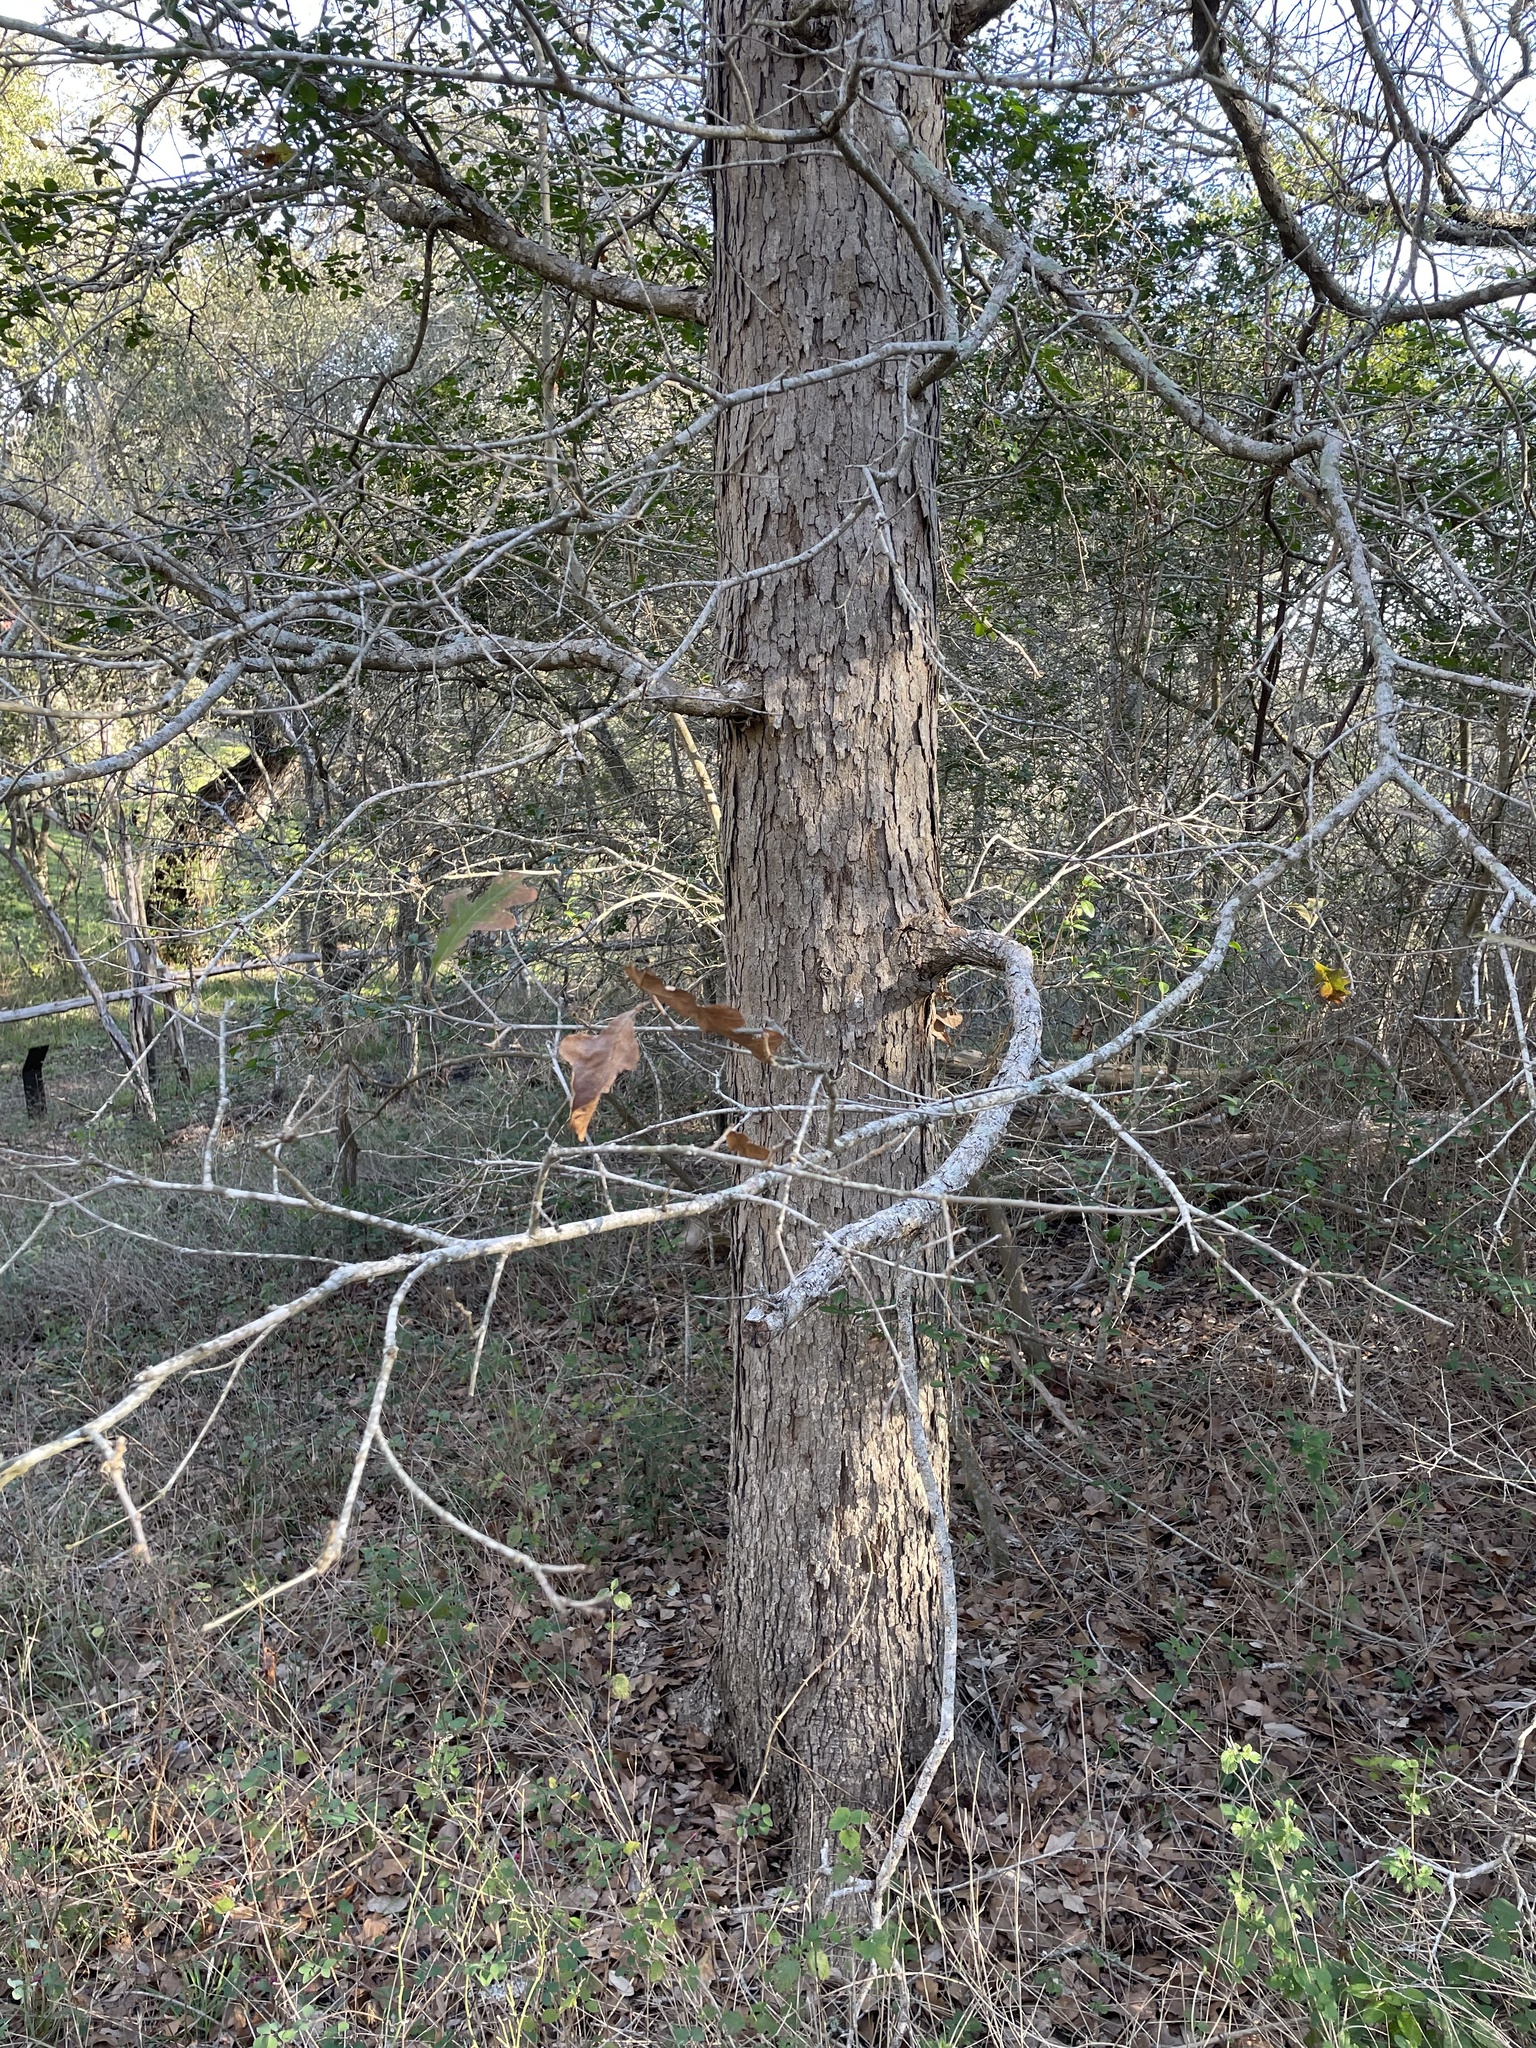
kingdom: Plantae
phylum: Tracheophyta
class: Magnoliopsida
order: Fagales
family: Fagaceae
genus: Quercus
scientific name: Quercus sinuata
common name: Durand oak
